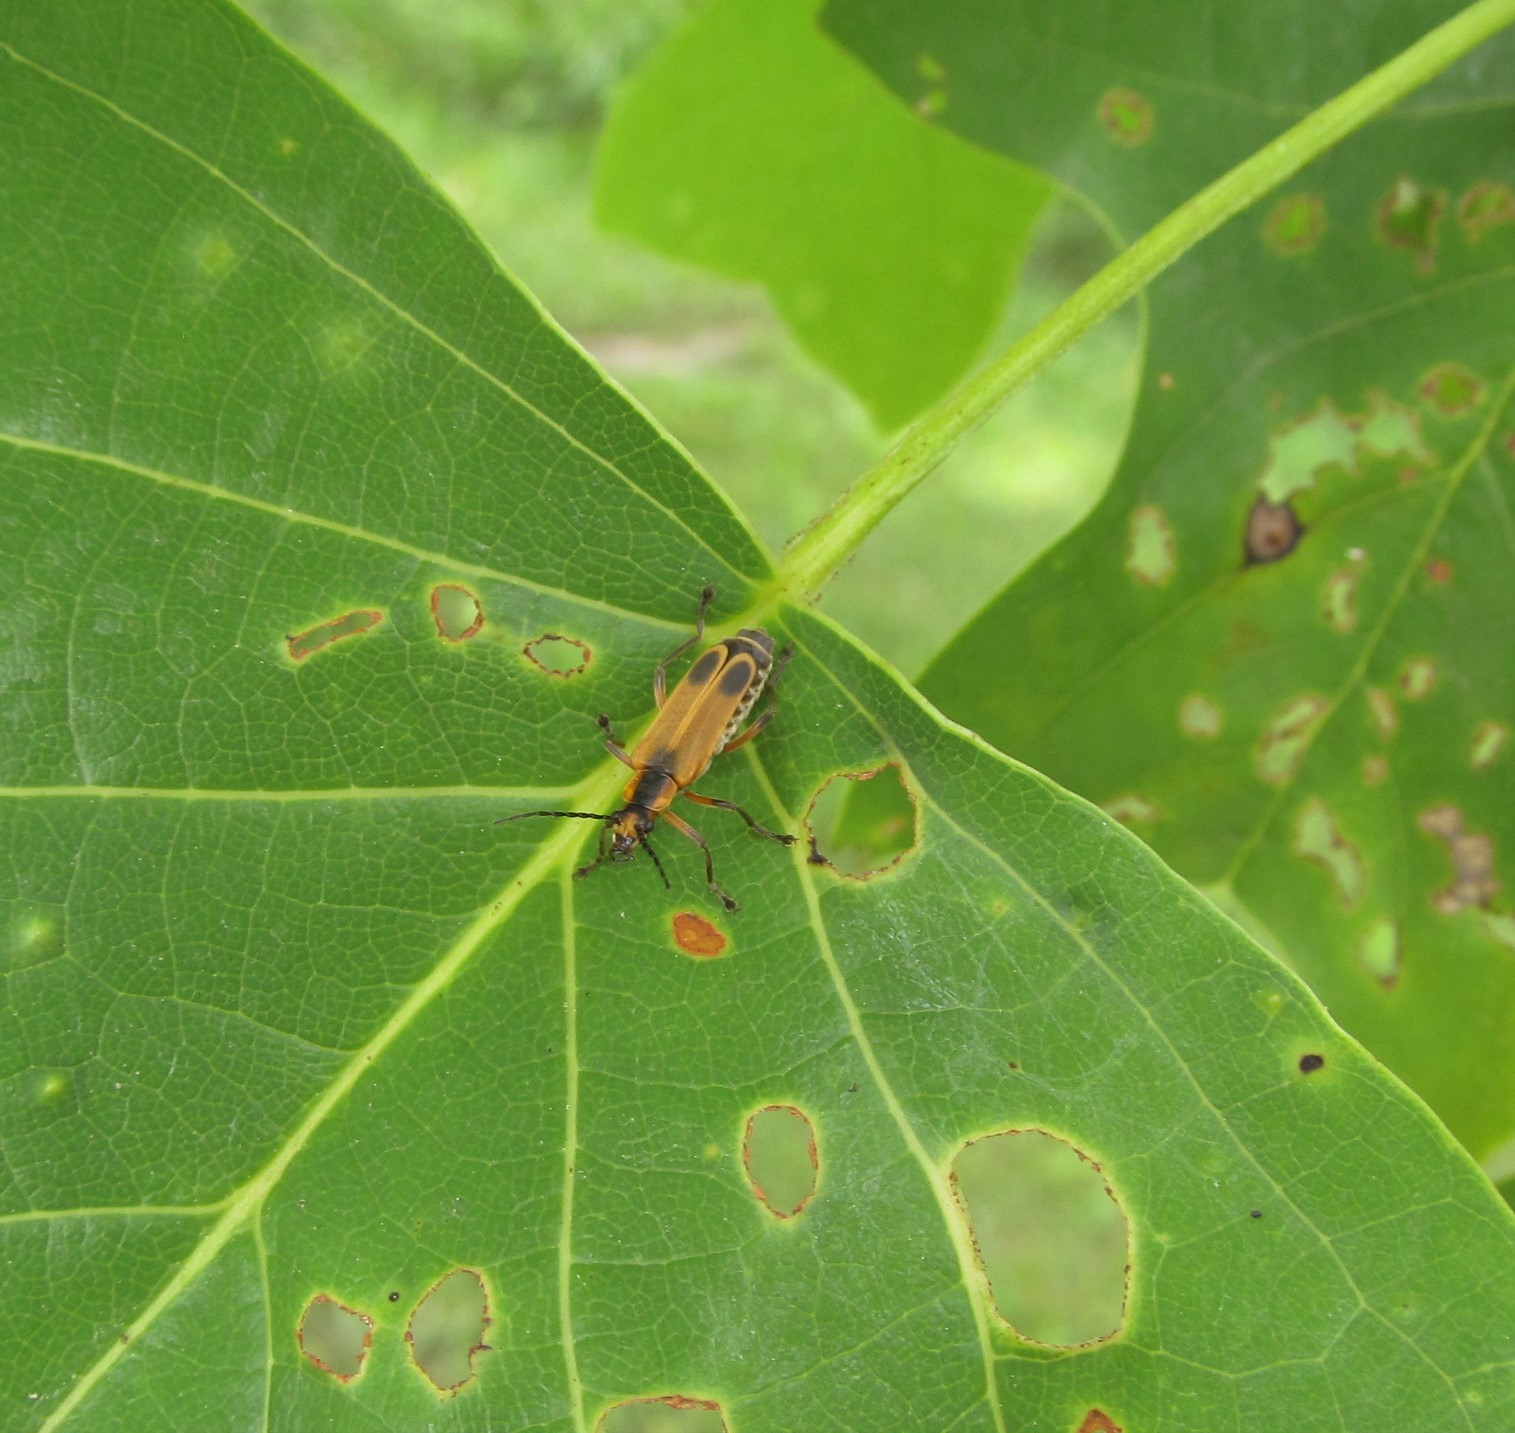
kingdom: Animalia
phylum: Arthropoda
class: Insecta
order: Coleoptera
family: Cantharidae
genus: Chauliognathus
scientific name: Chauliognathus marginatus
